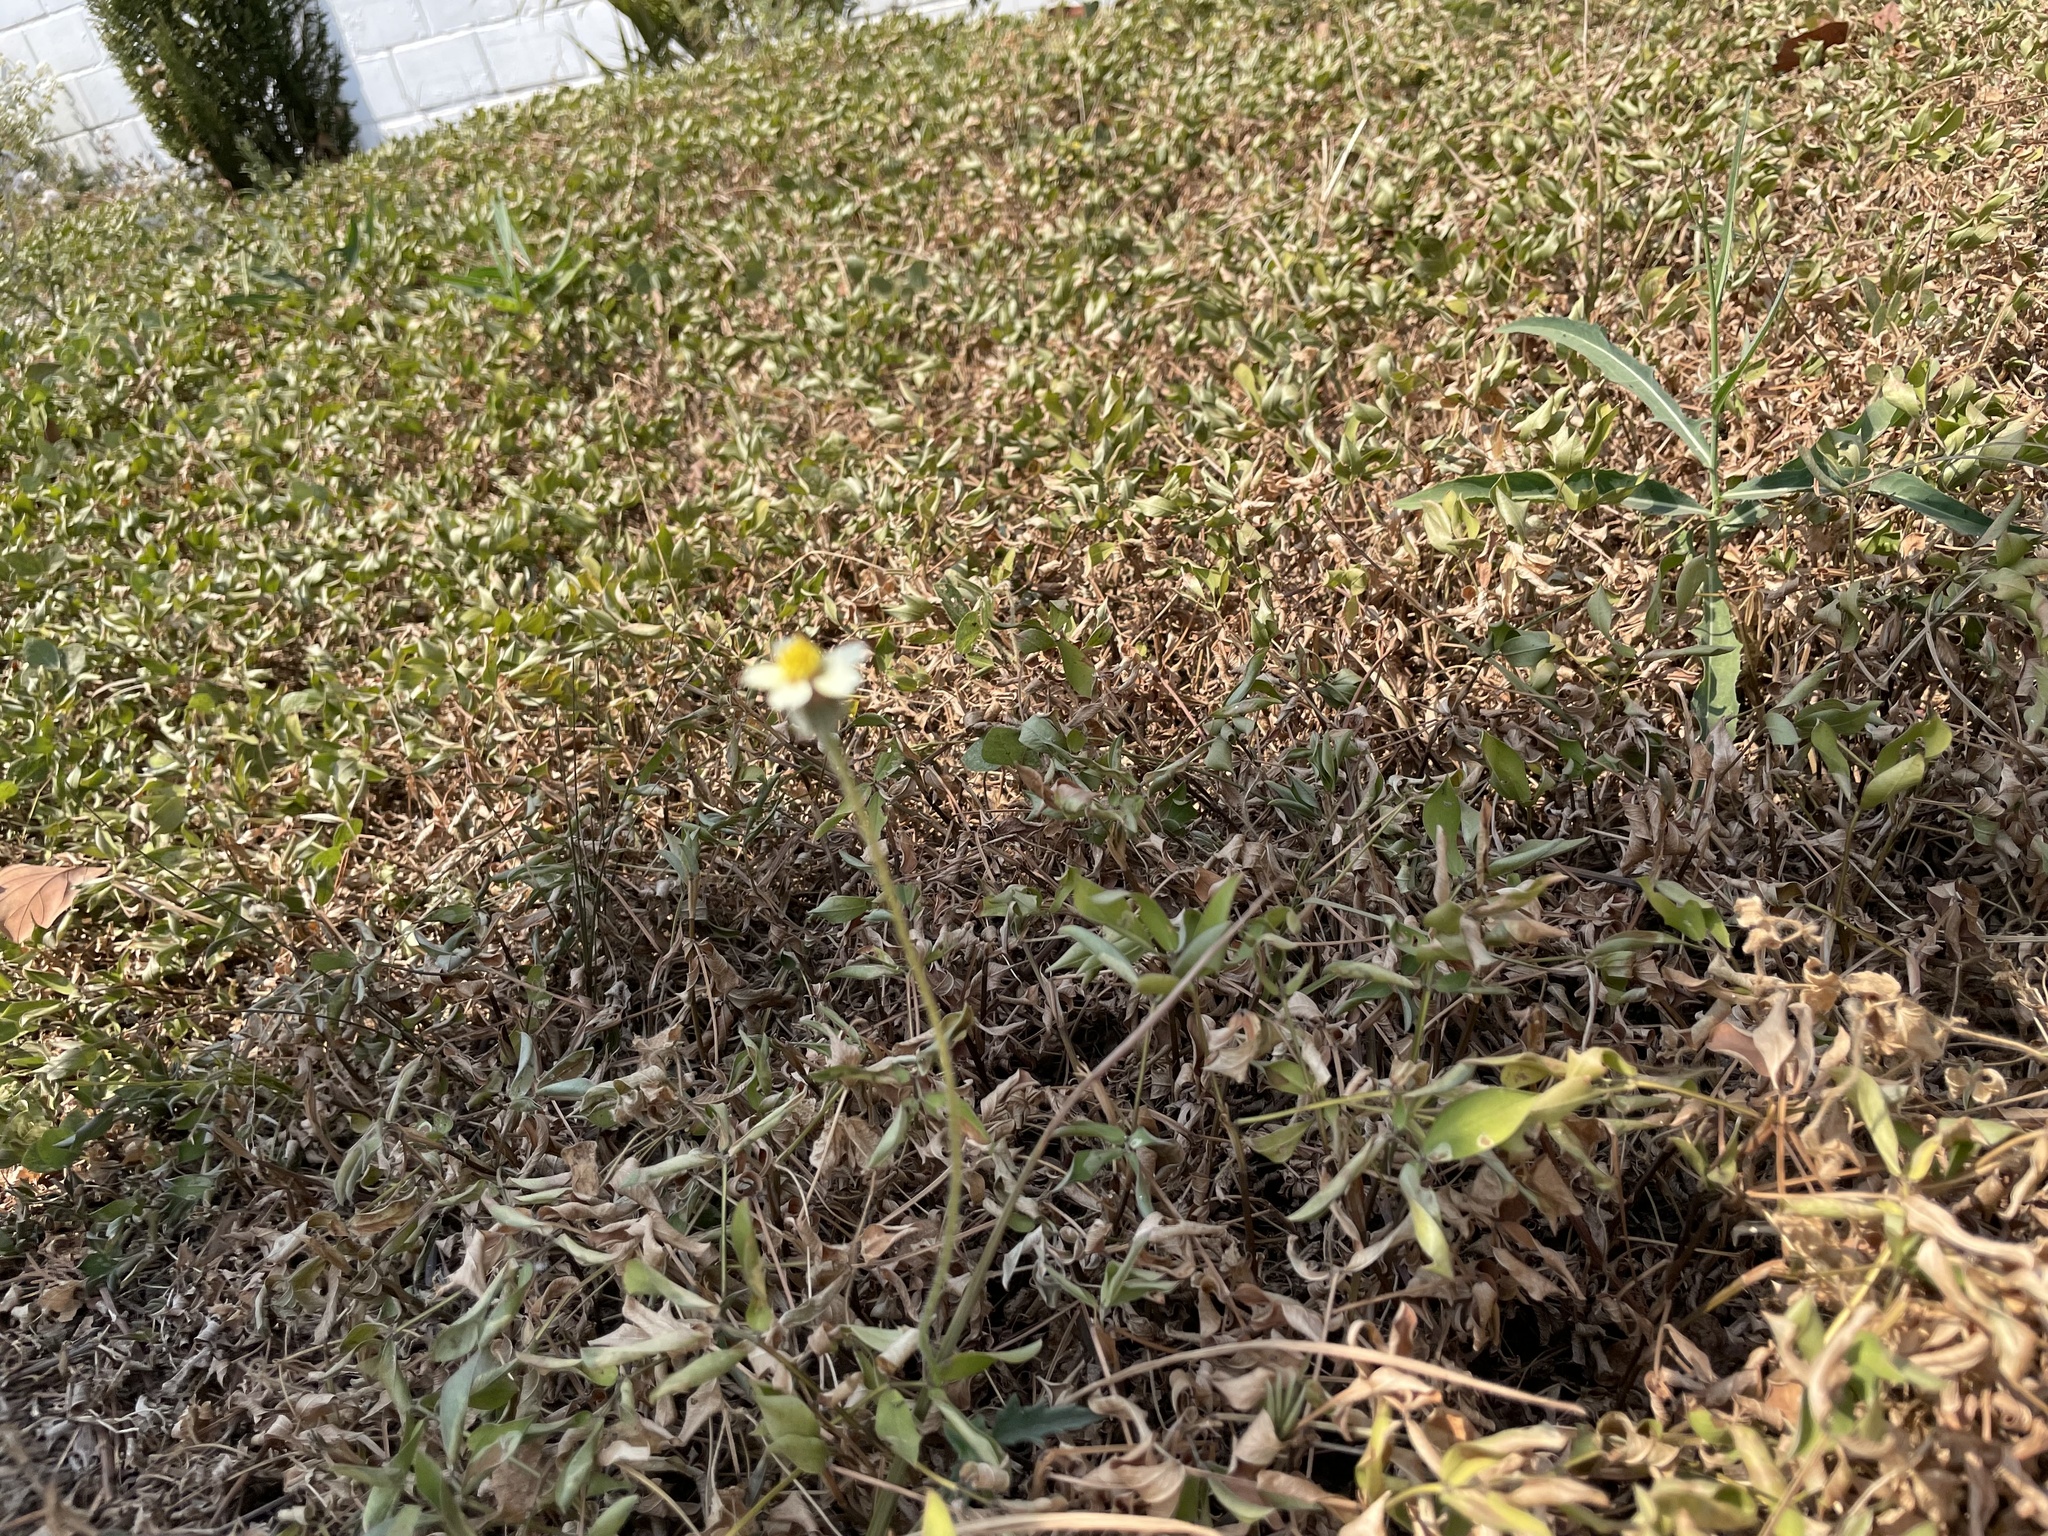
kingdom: Plantae
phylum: Tracheophyta
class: Magnoliopsida
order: Asterales
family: Asteraceae
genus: Tridax
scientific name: Tridax procumbens
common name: Coatbuttons
